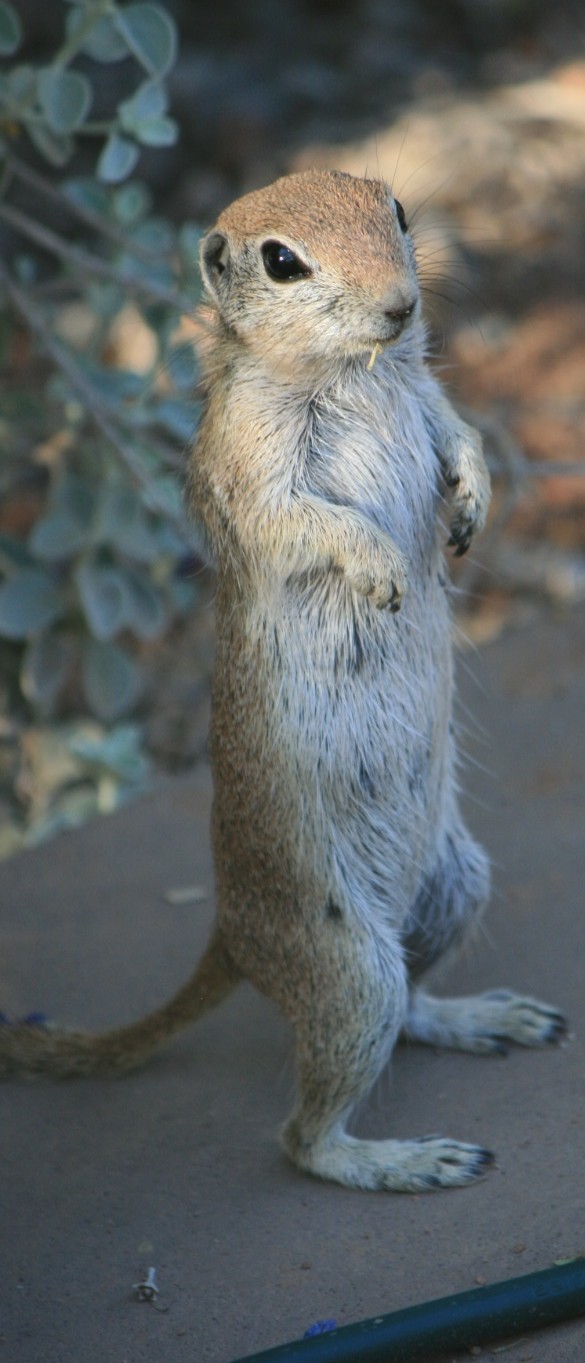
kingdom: Animalia
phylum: Chordata
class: Mammalia
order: Rodentia
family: Sciuridae
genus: Xerospermophilus
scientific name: Xerospermophilus tereticaudus
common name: Round-tailed ground squirrel
